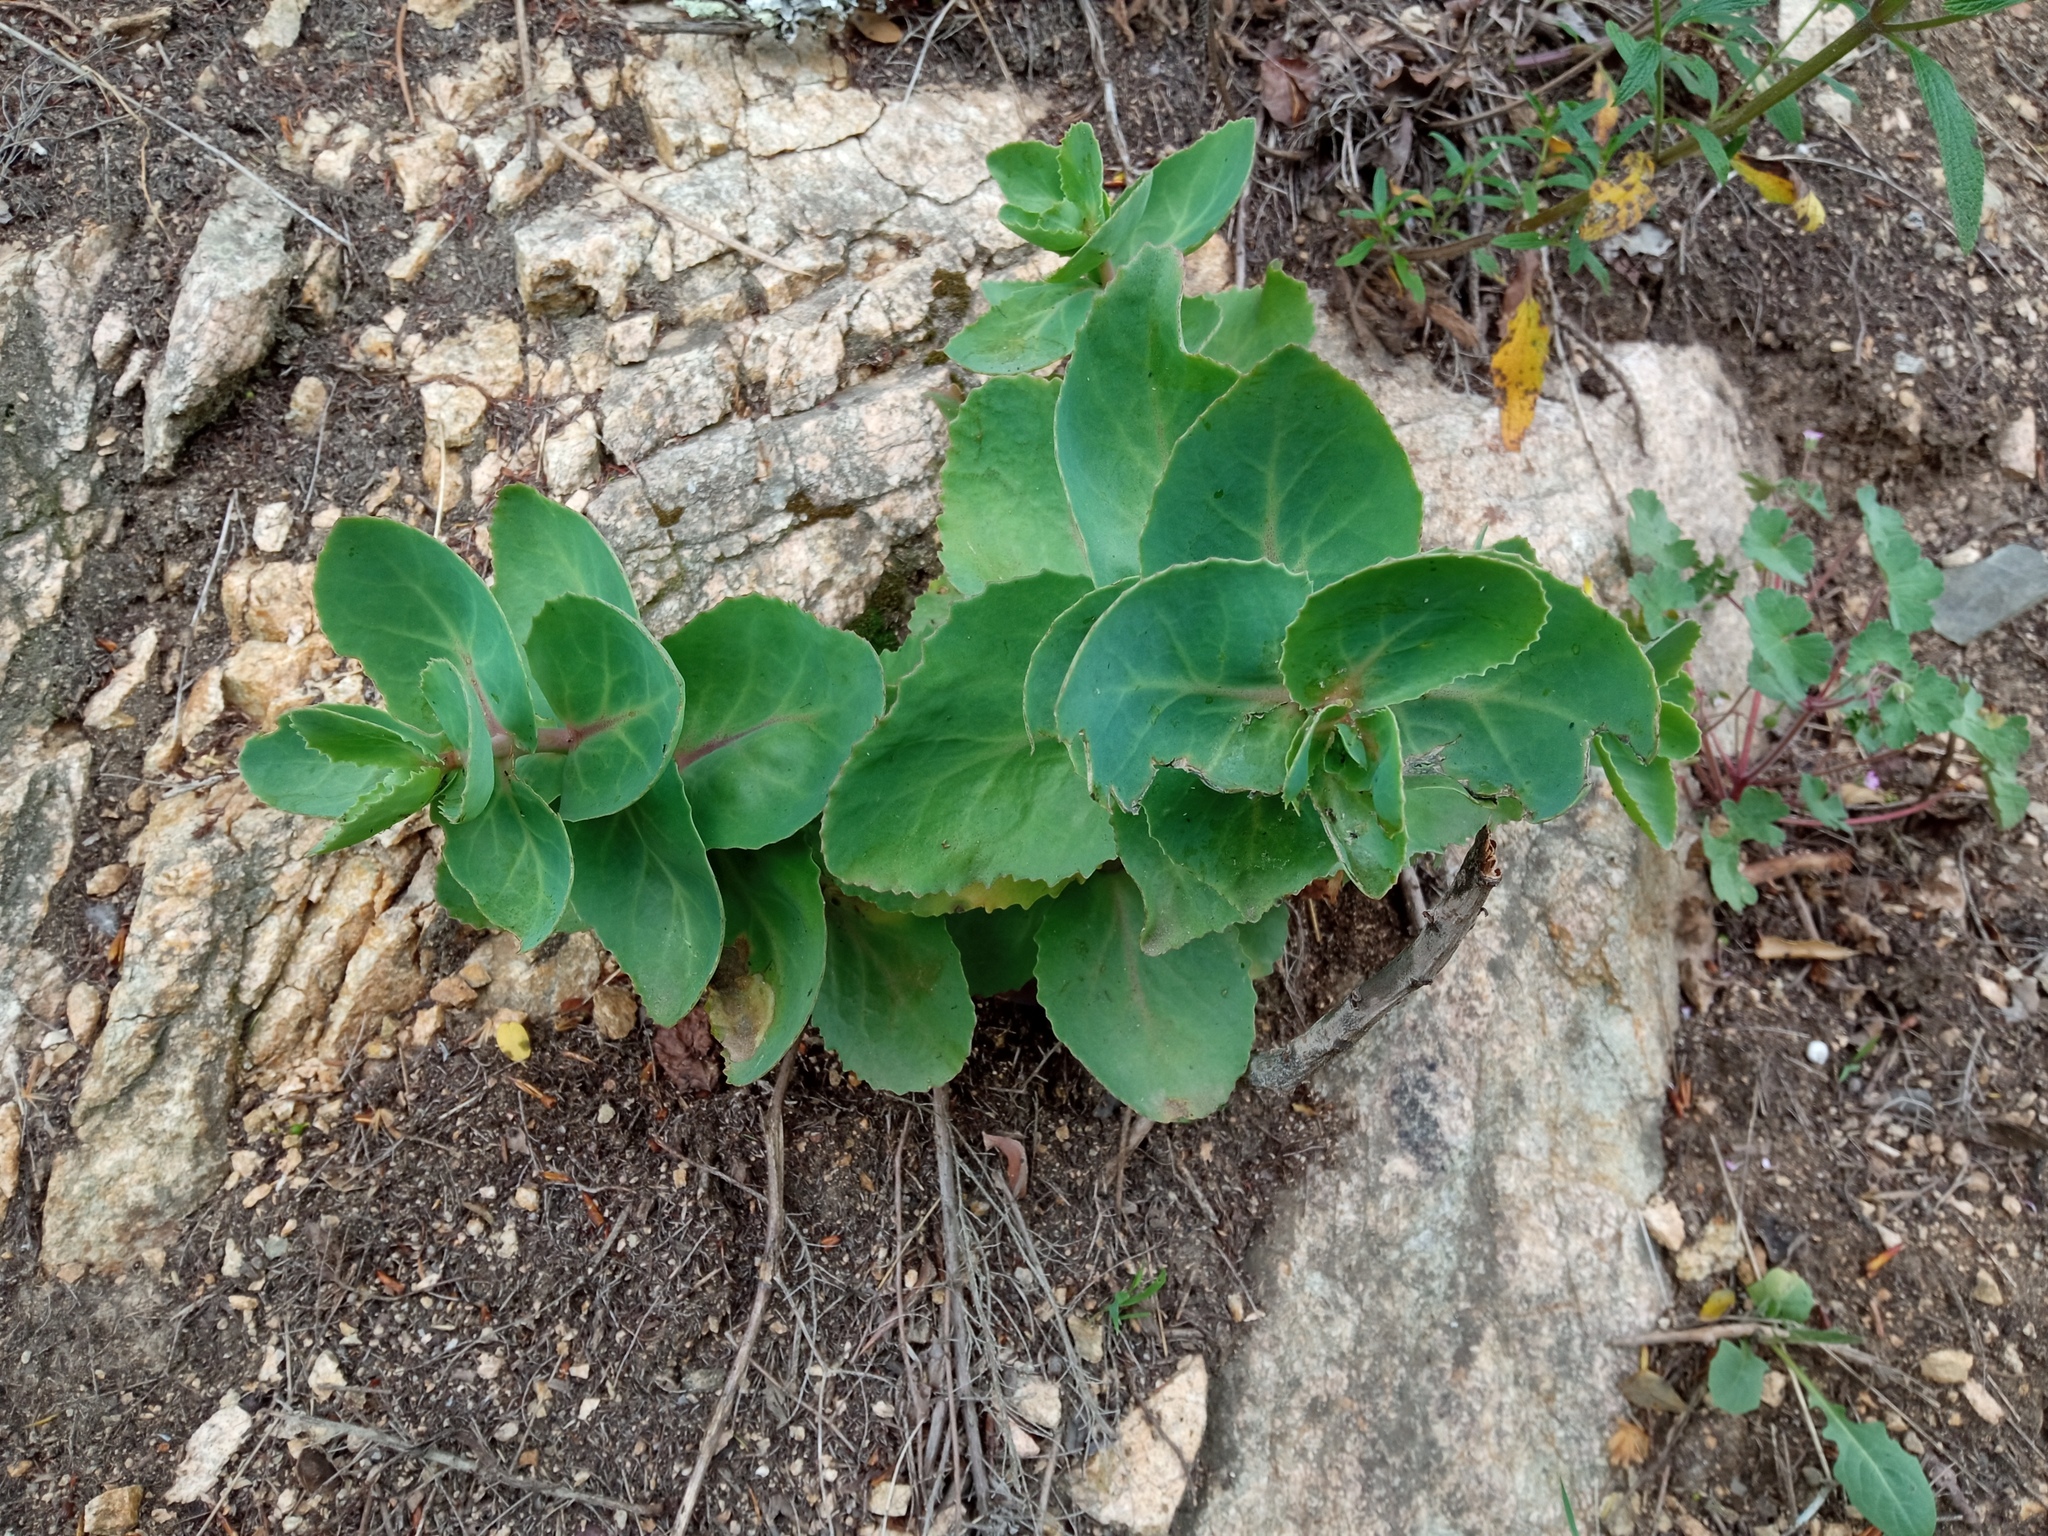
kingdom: Plantae
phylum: Tracheophyta
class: Magnoliopsida
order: Saxifragales
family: Crassulaceae
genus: Hylotelephium
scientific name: Hylotelephium maximum
